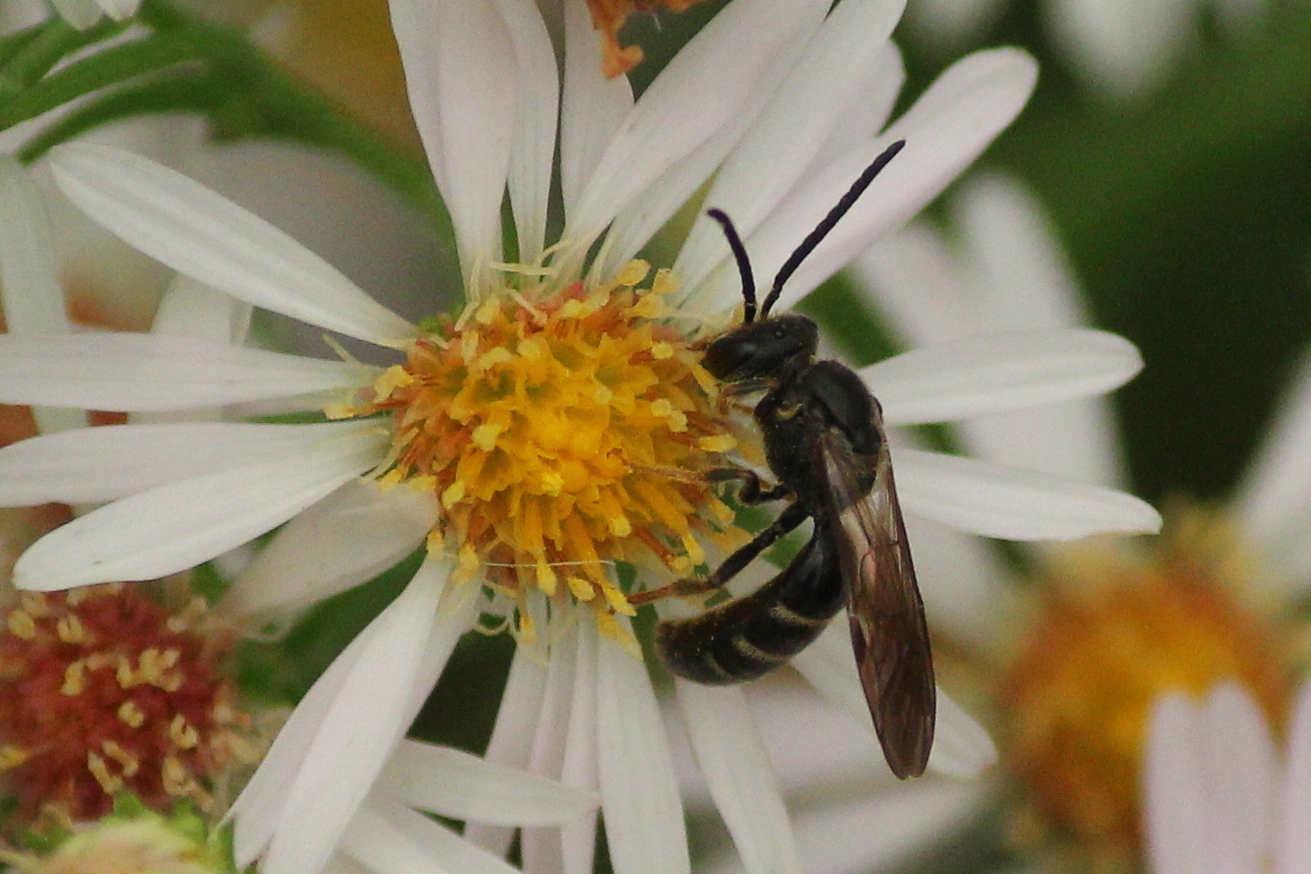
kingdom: Animalia
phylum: Arthropoda
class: Insecta
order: Hymenoptera
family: Halictidae
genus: Lasioglossum
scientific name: Lasioglossum fuscipenne
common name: Brown-winged sweat bee
